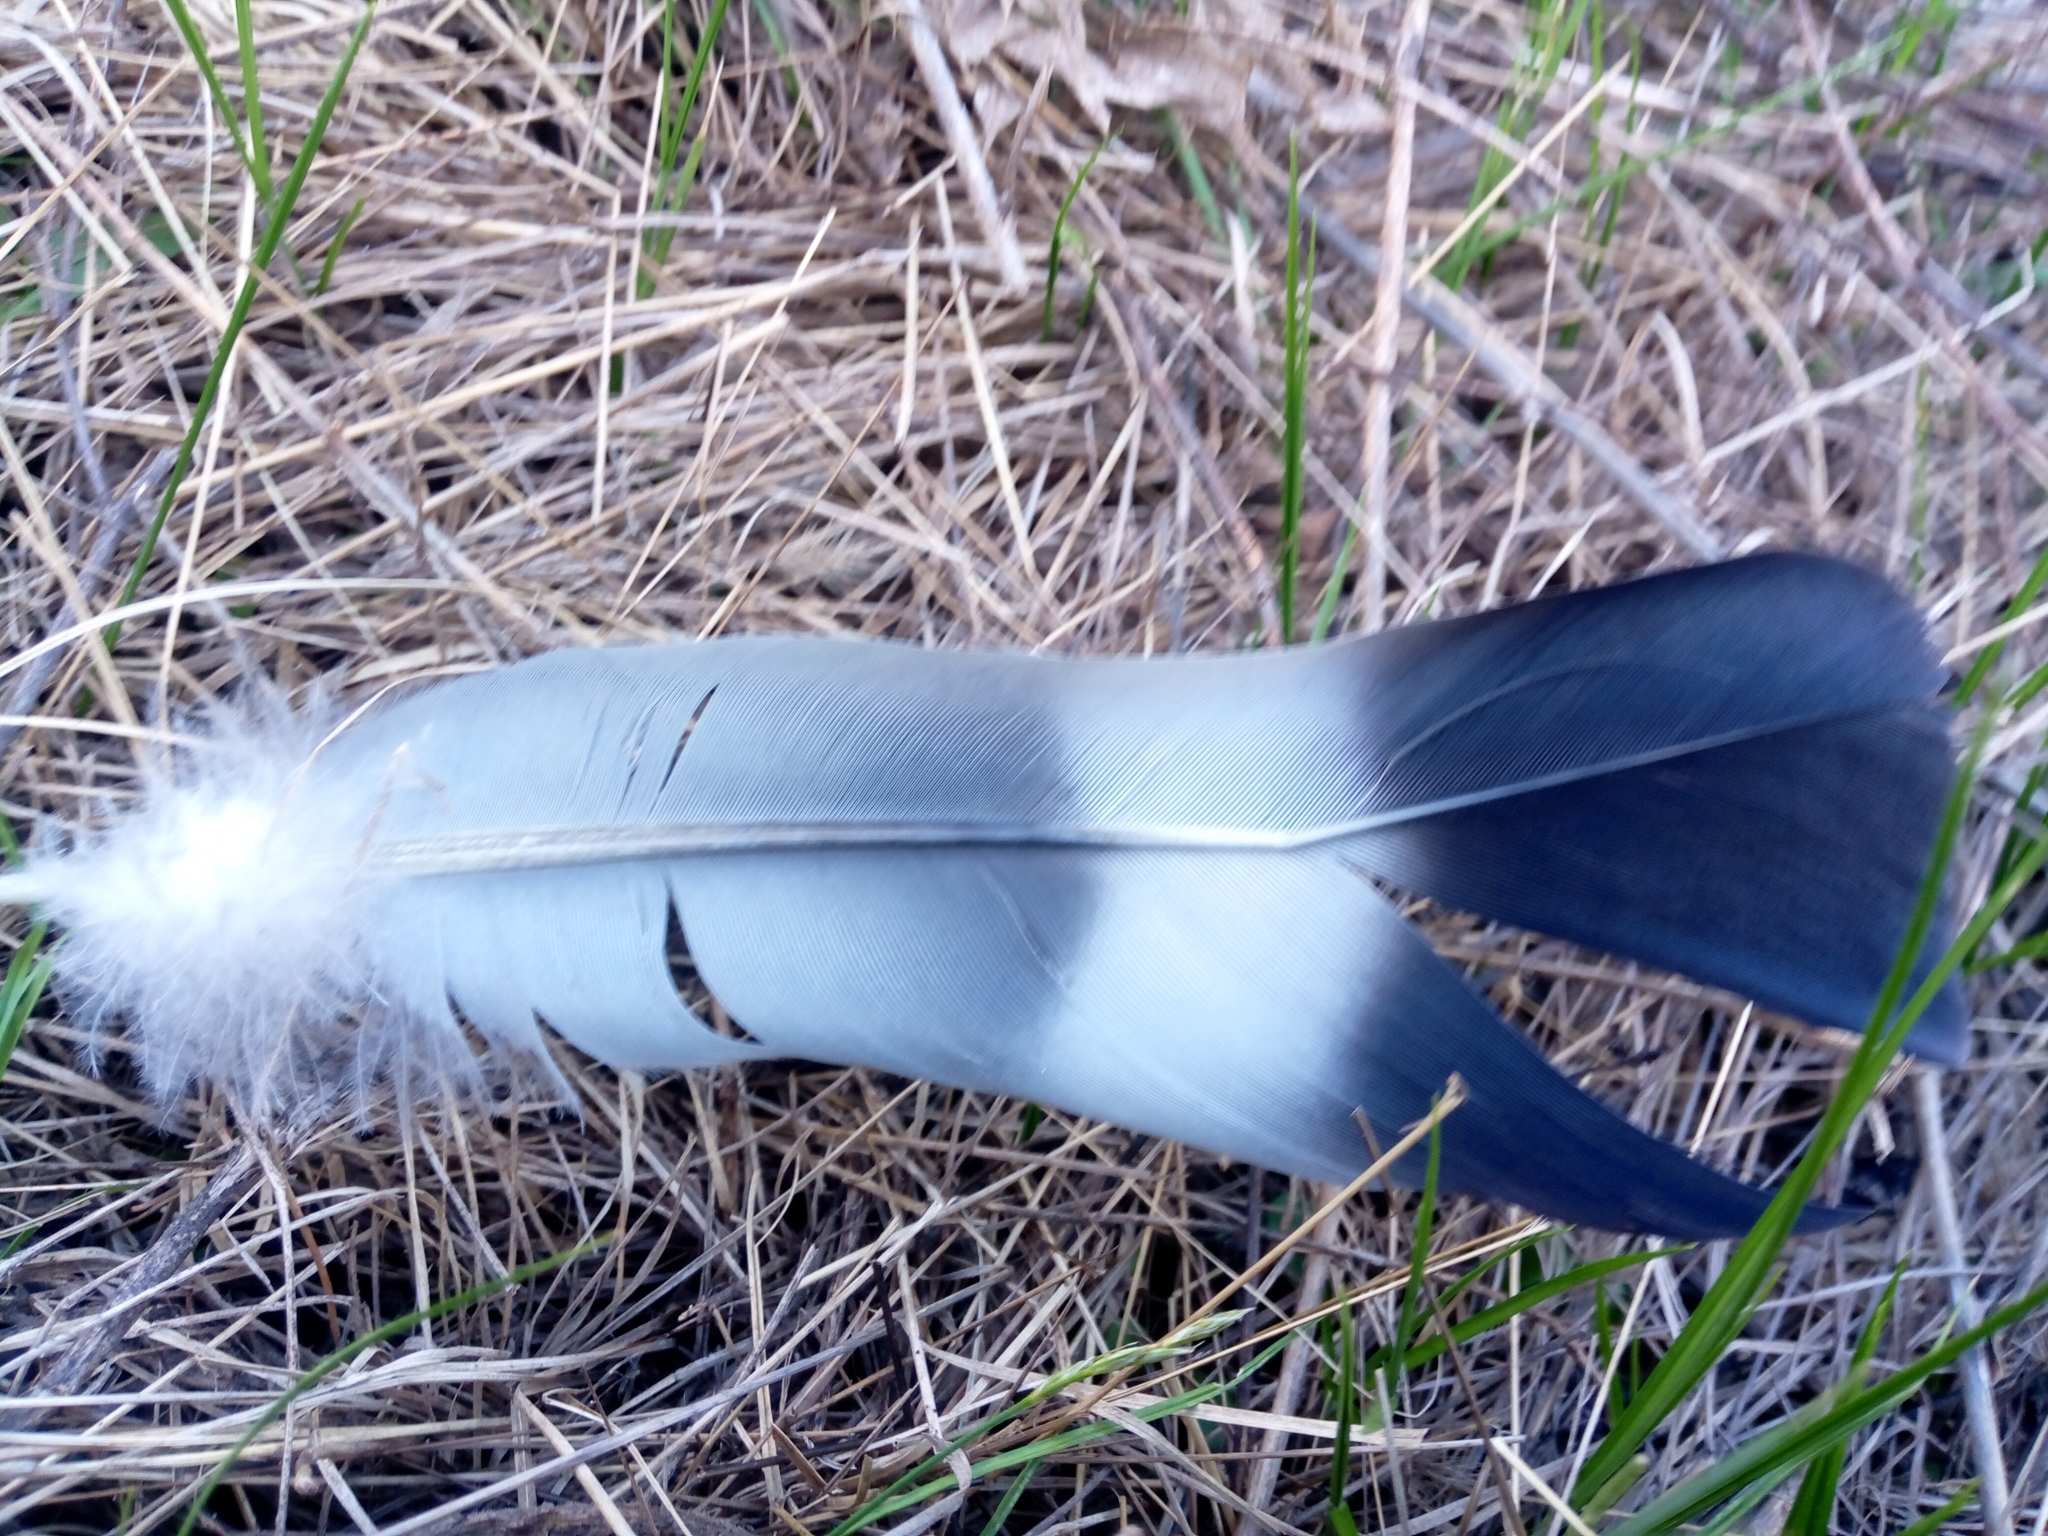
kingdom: Animalia
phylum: Chordata
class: Aves
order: Columbiformes
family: Columbidae
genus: Columba
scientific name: Columba palumbus
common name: Common wood pigeon
